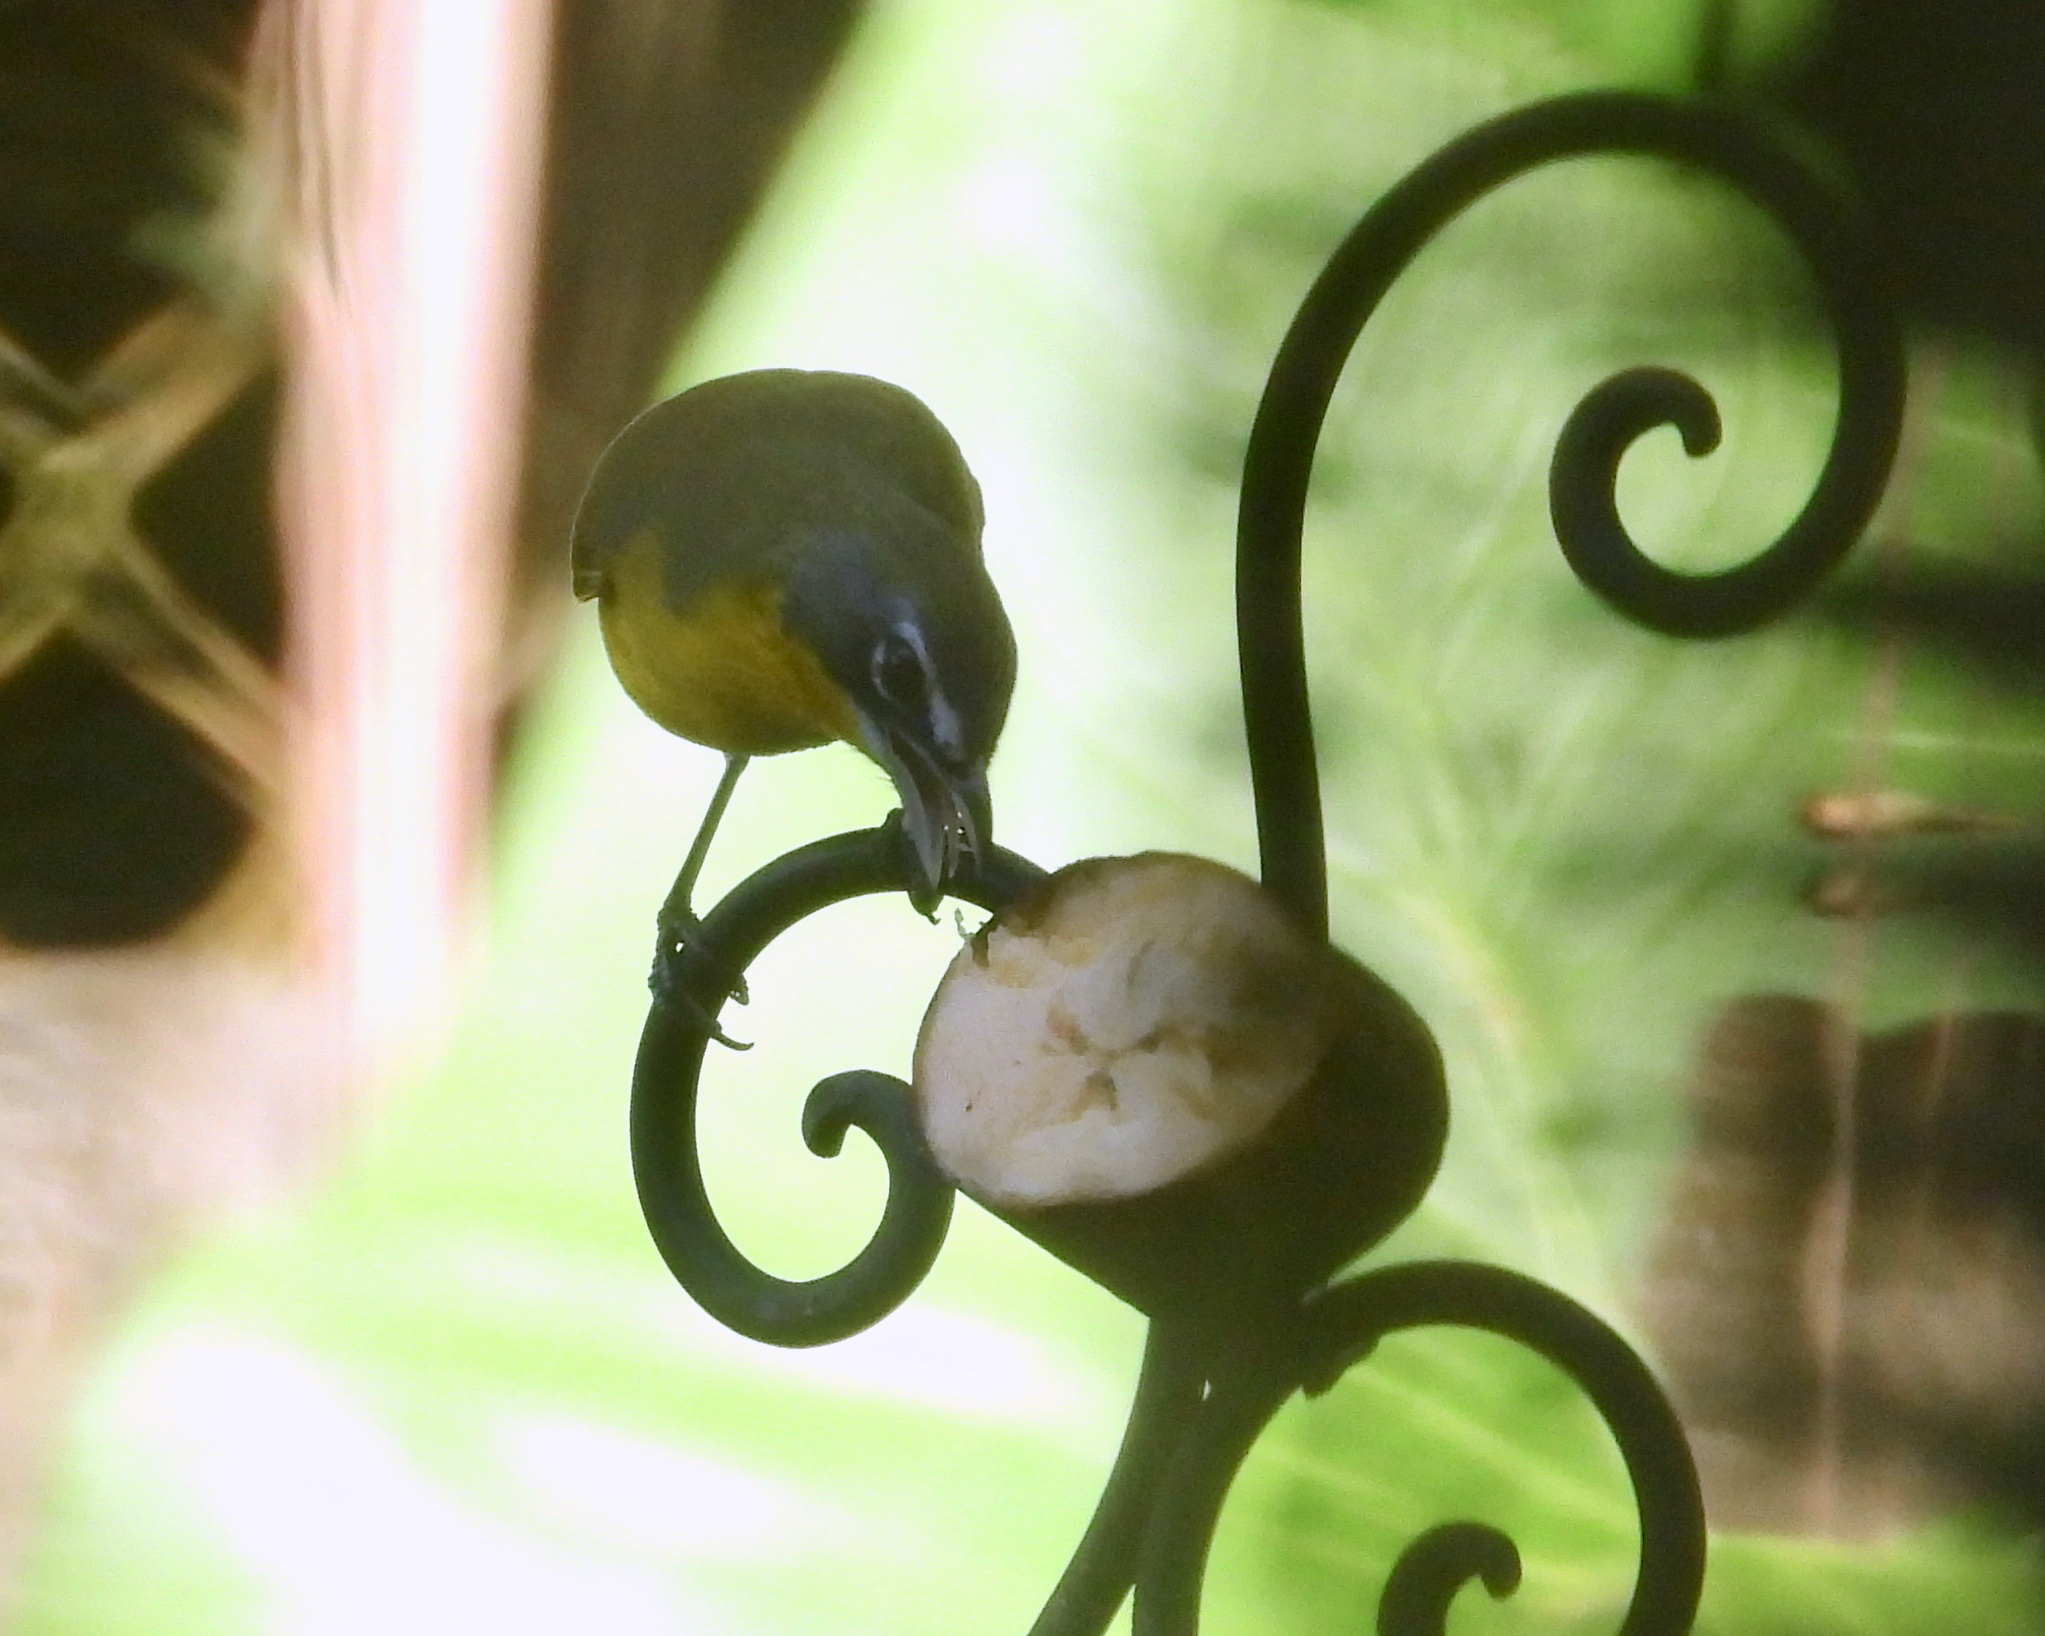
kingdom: Animalia
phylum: Chordata
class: Aves
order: Passeriformes
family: Parulidae
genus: Icteria
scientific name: Icteria virens
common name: Yellow-breasted chat
